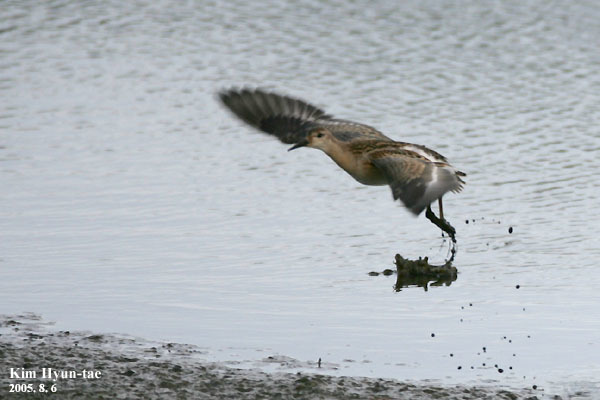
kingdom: Animalia
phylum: Chordata
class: Aves
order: Charadriiformes
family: Scolopacidae
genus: Calidris
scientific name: Calidris pugnax
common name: Ruff
